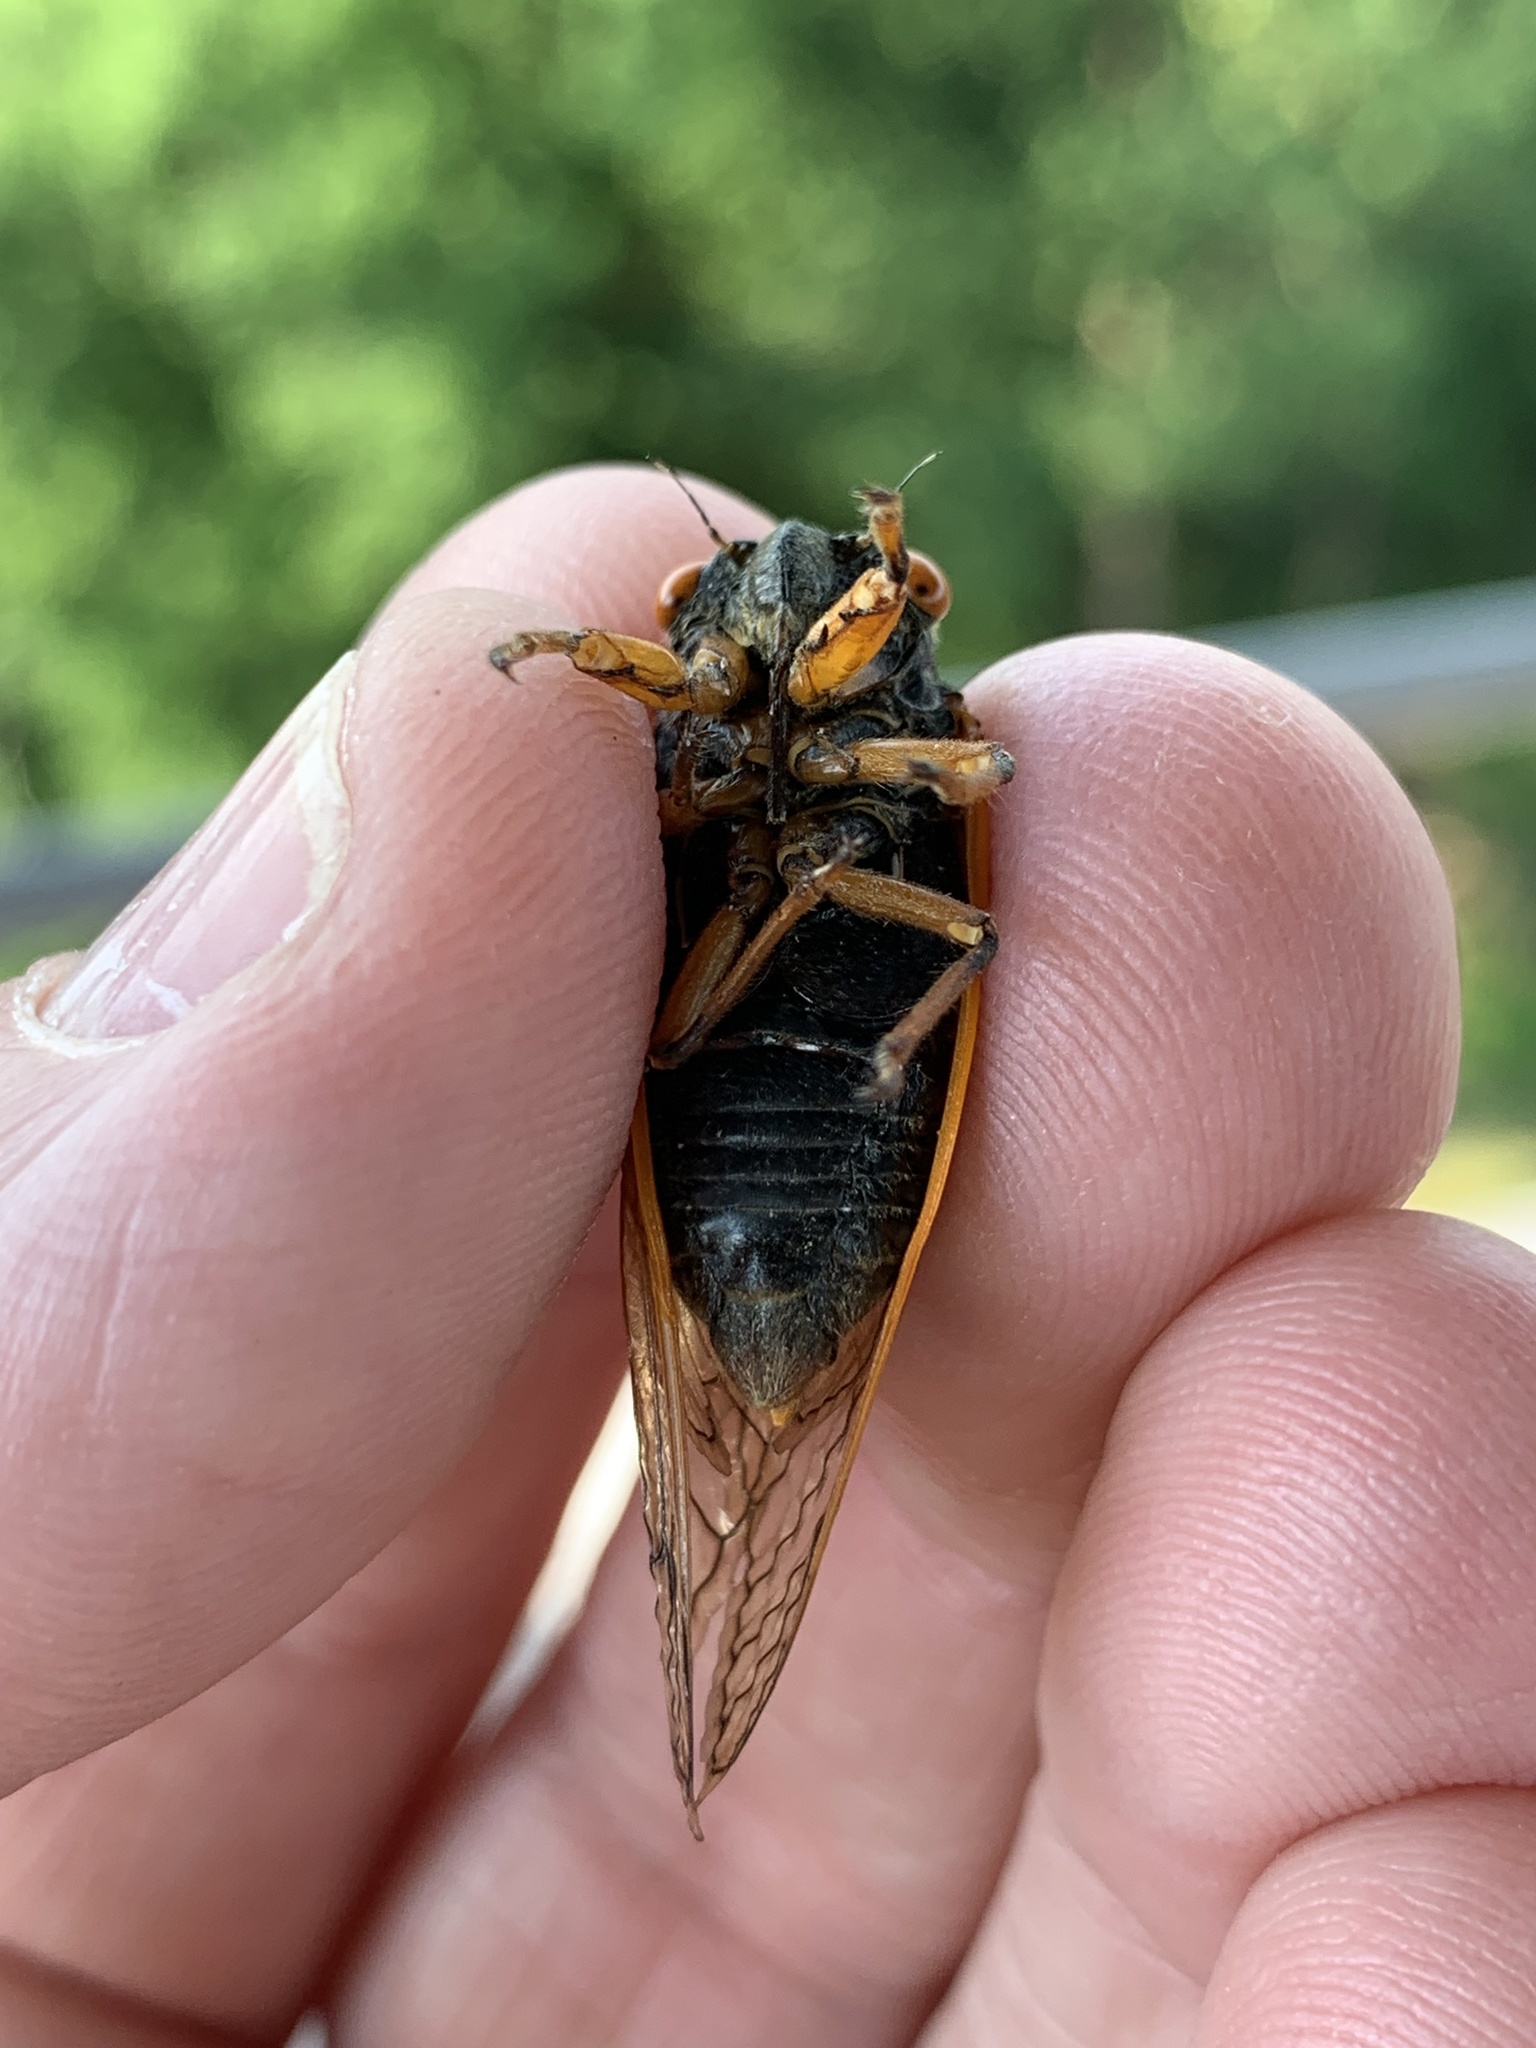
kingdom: Animalia
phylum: Arthropoda
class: Insecta
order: Hemiptera
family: Cicadidae
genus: Magicicada
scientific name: Magicicada cassini
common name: Cassin's 17-year cicada
